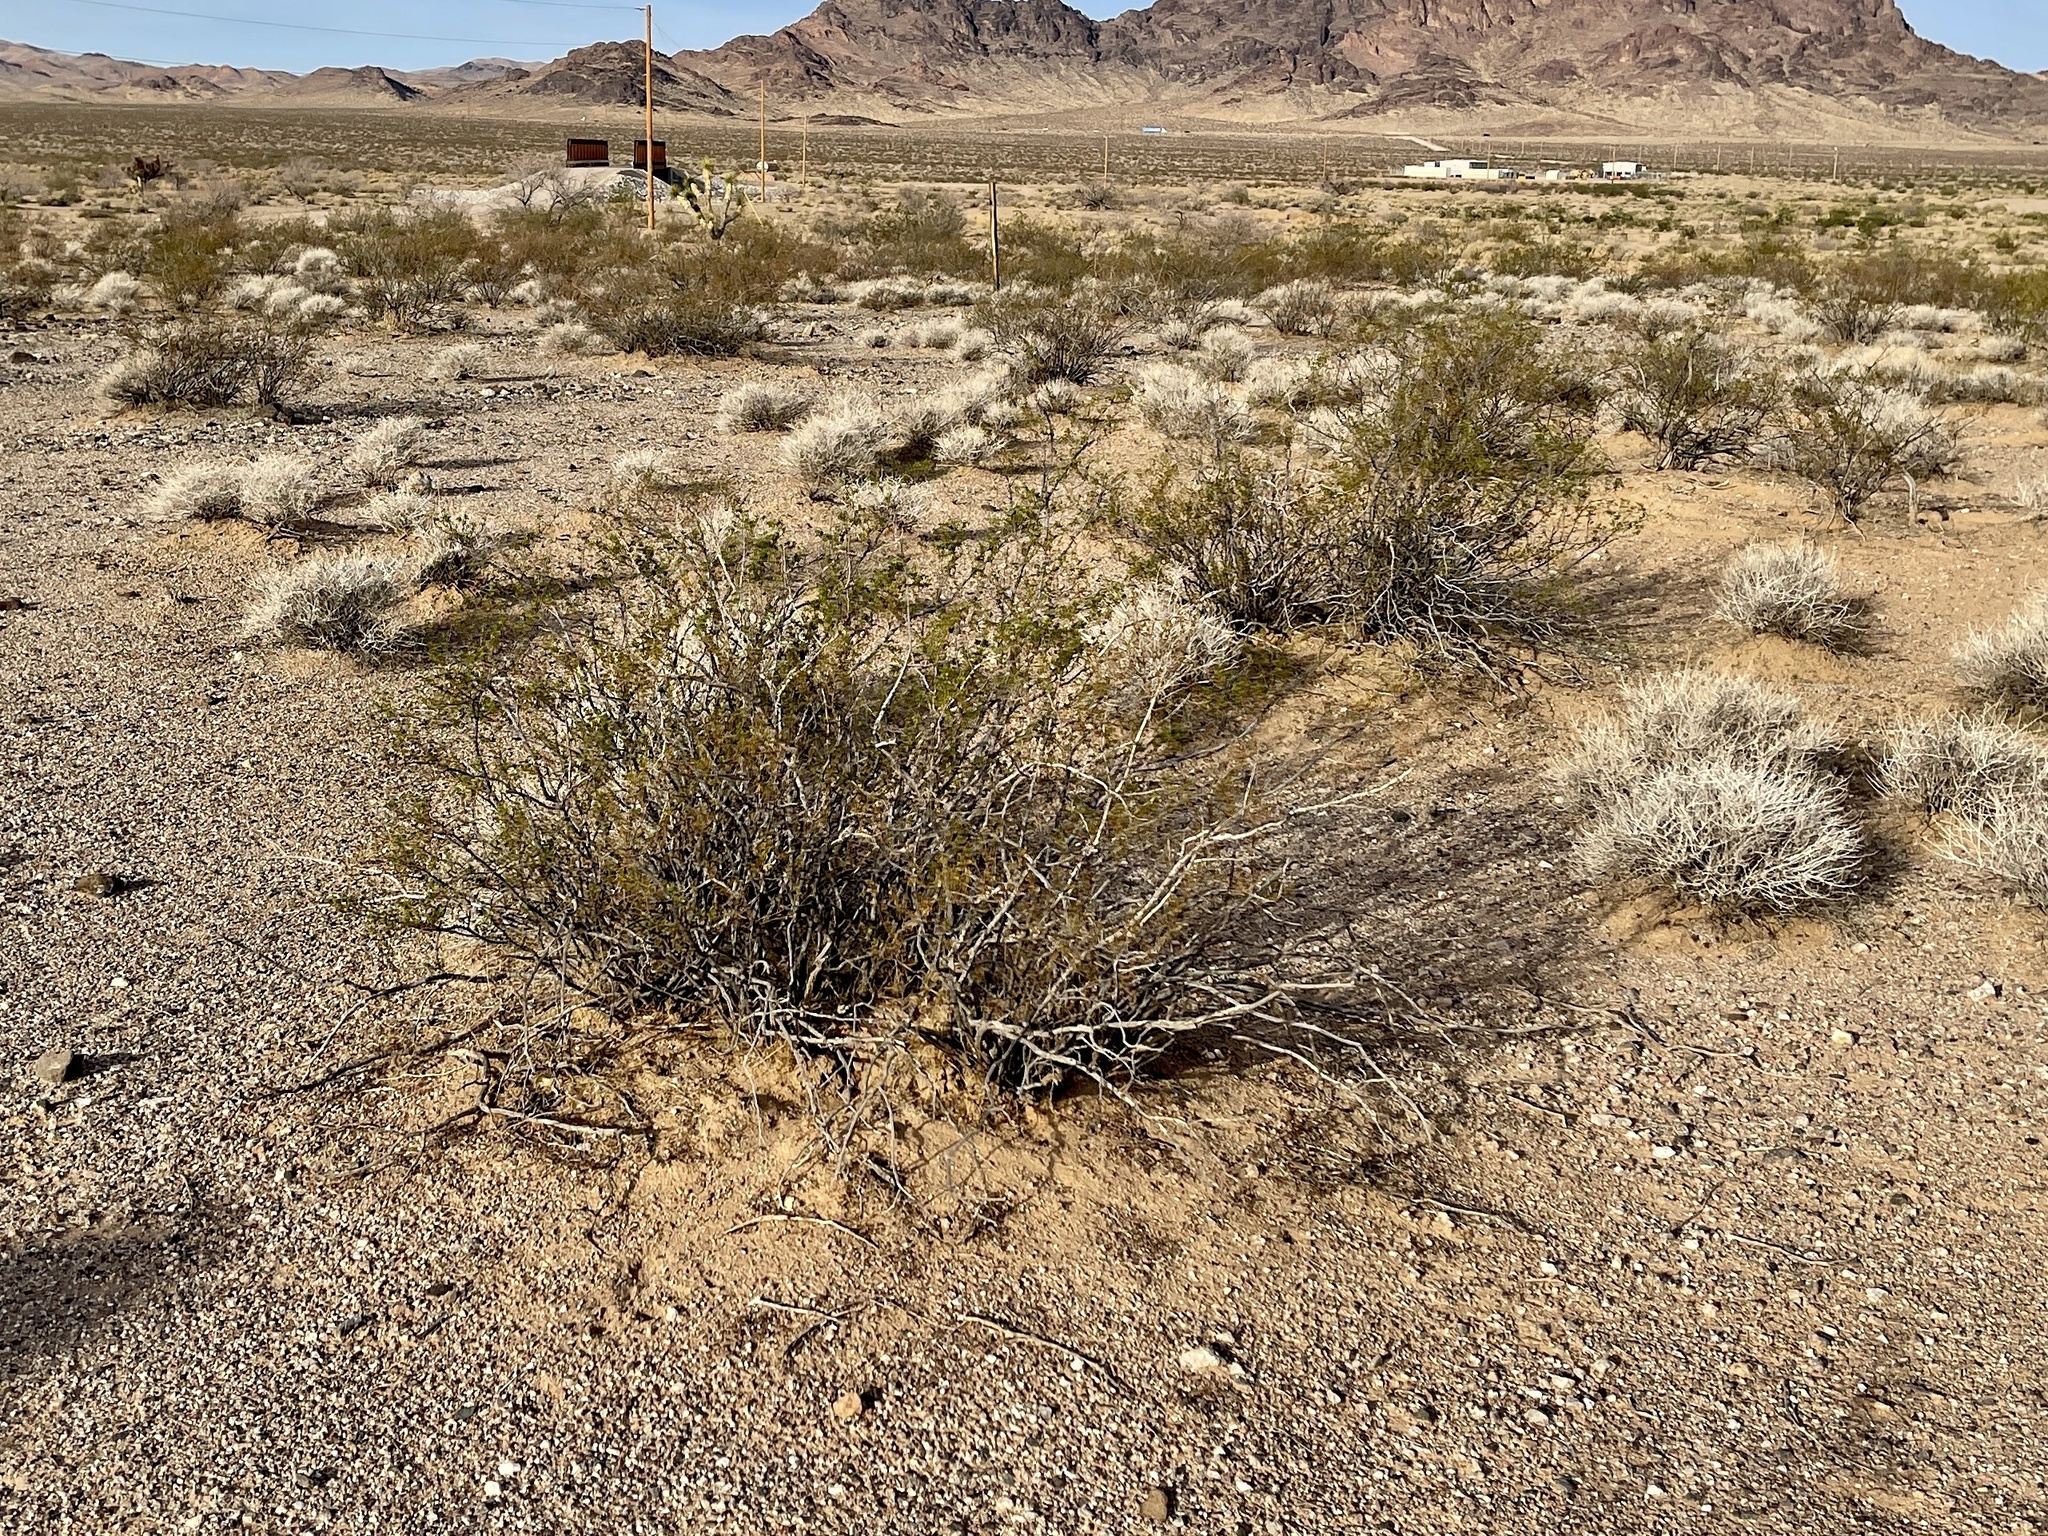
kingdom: Plantae
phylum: Tracheophyta
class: Magnoliopsida
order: Zygophyllales
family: Zygophyllaceae
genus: Larrea
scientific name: Larrea tridentata
